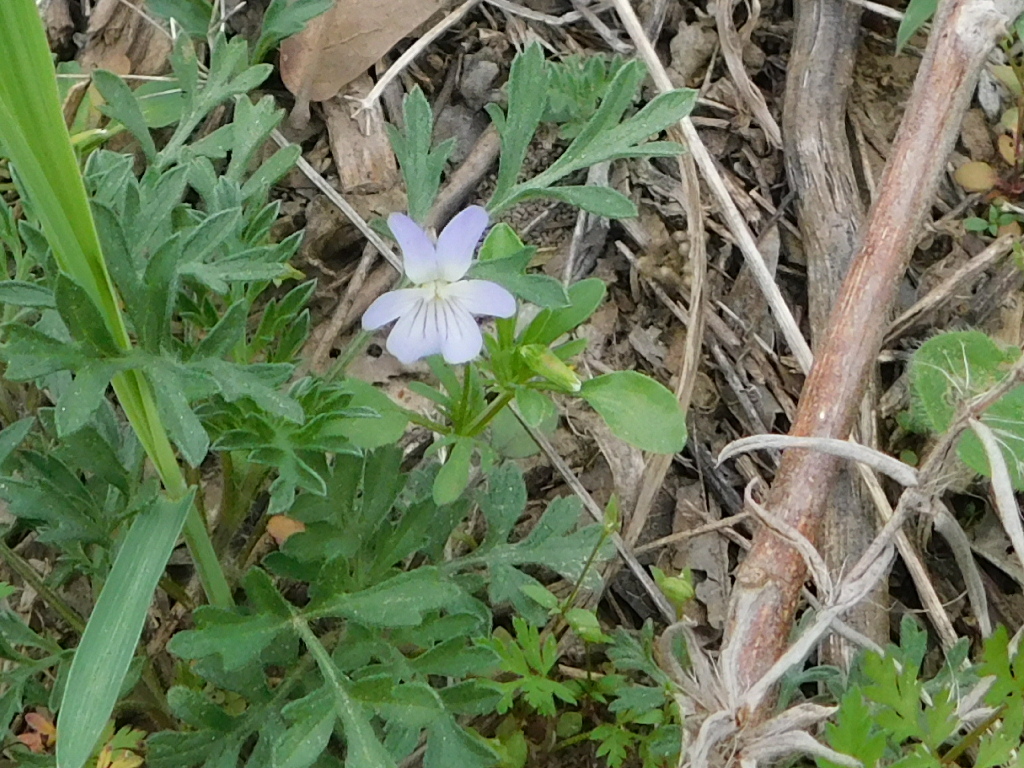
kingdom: Plantae
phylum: Tracheophyta
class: Magnoliopsida
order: Malpighiales
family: Violaceae
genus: Viola
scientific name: Viola rafinesquei
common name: American field pansy
